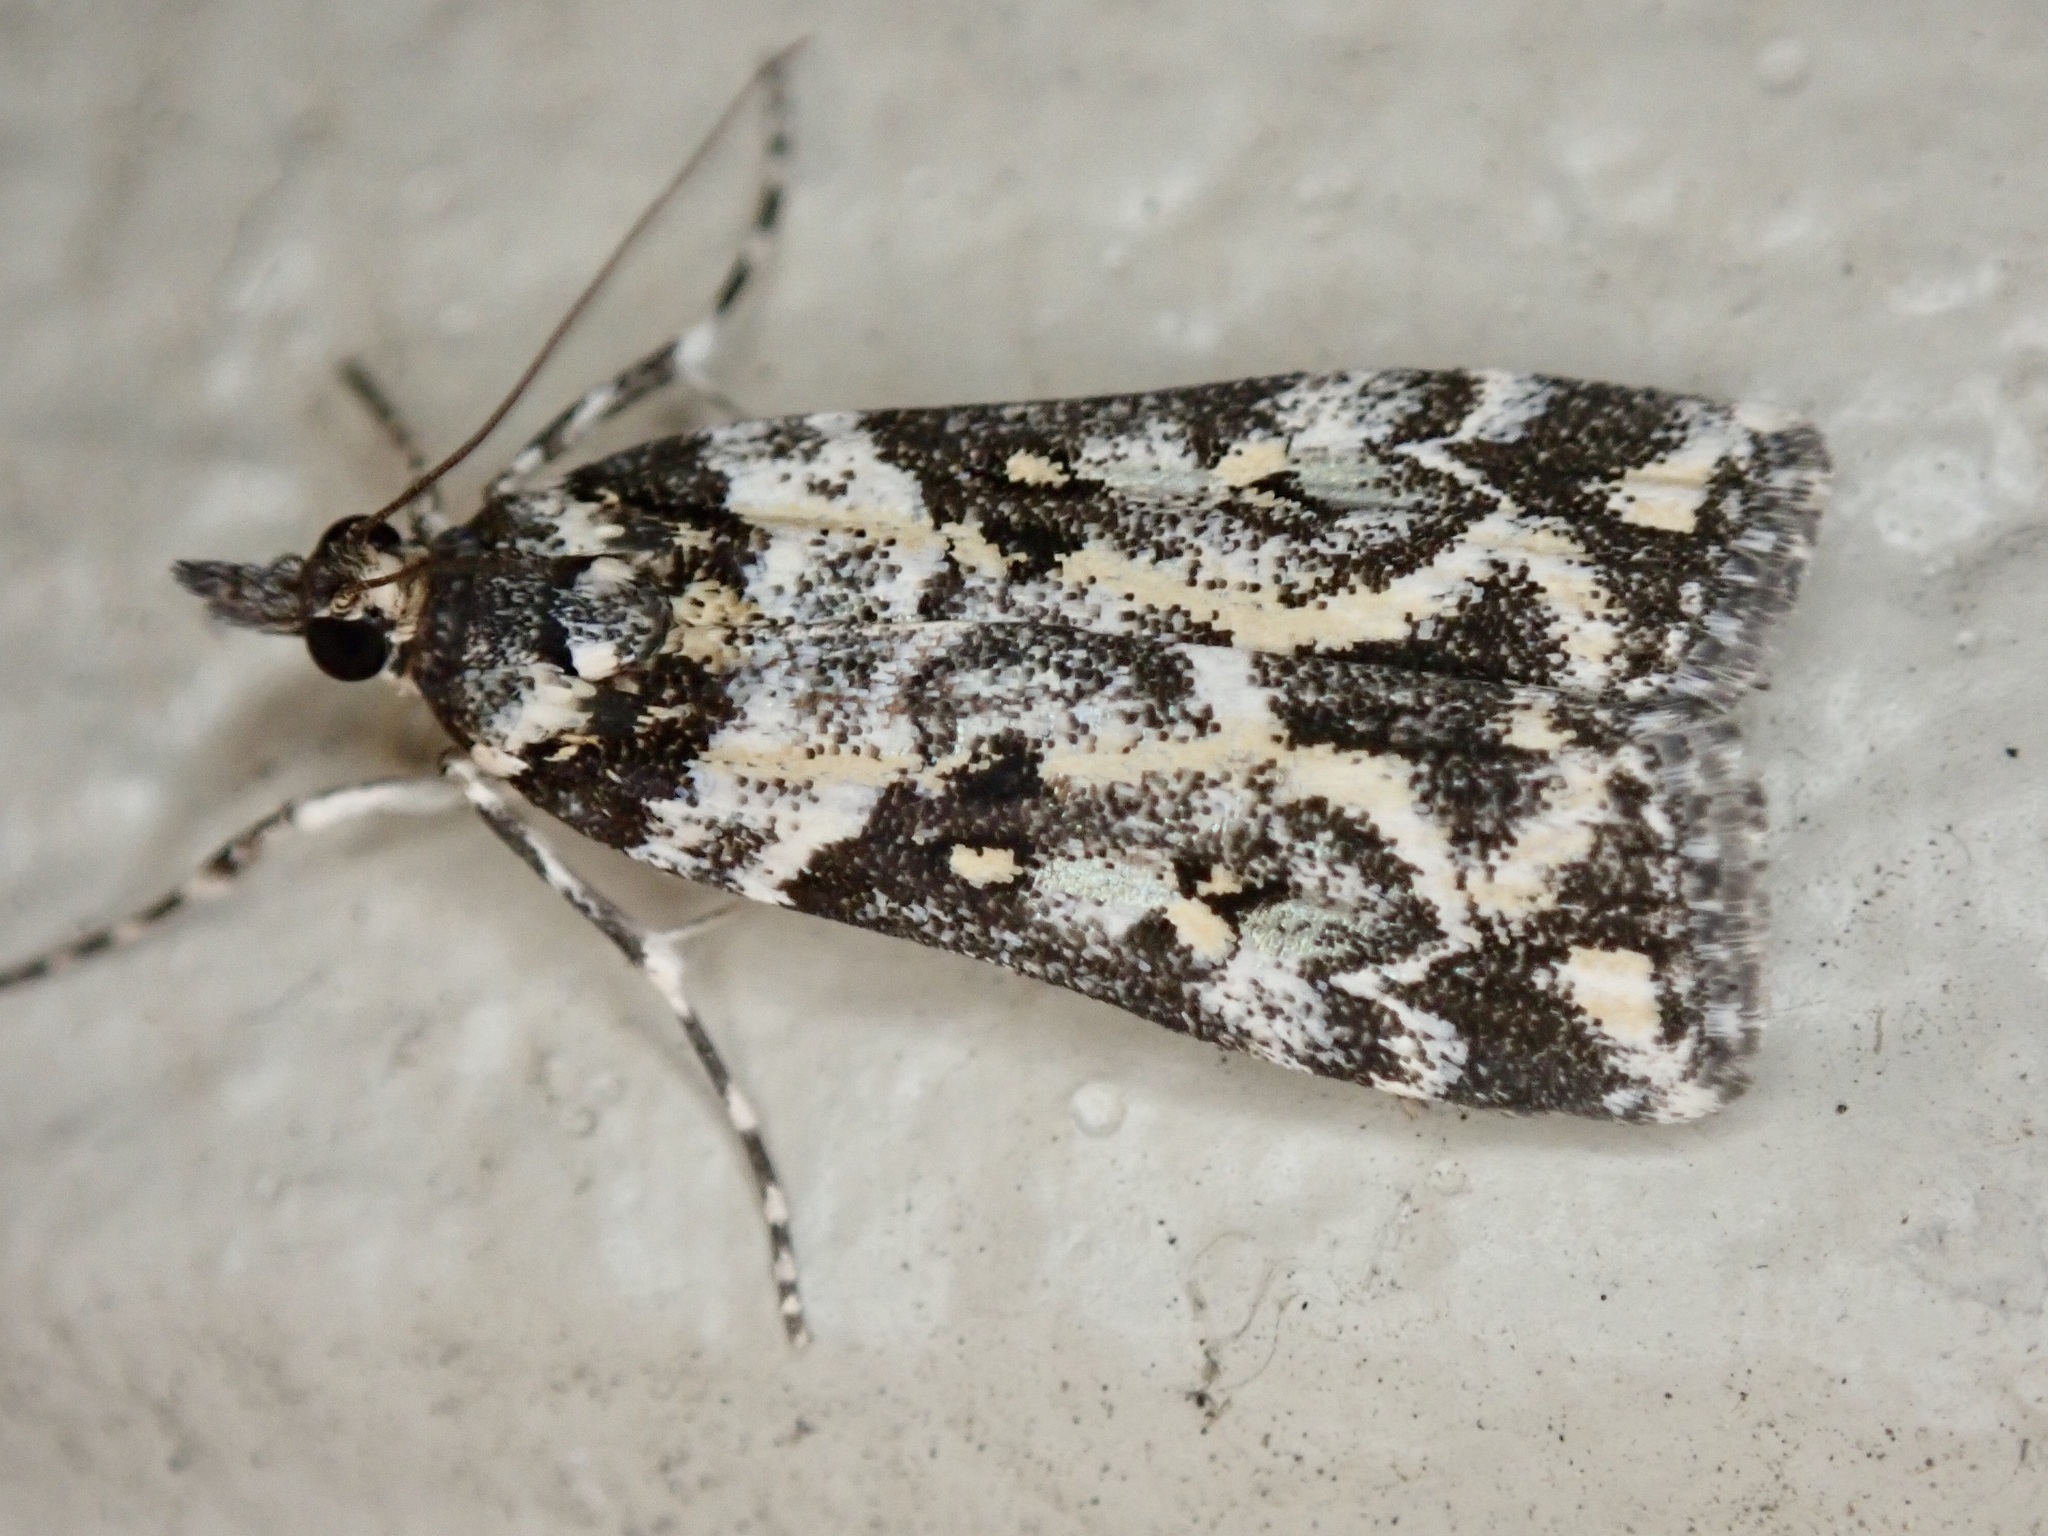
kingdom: Animalia
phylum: Arthropoda
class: Insecta
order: Lepidoptera
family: Crambidae
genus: Eudonia
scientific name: Eudonia diphtheralis
